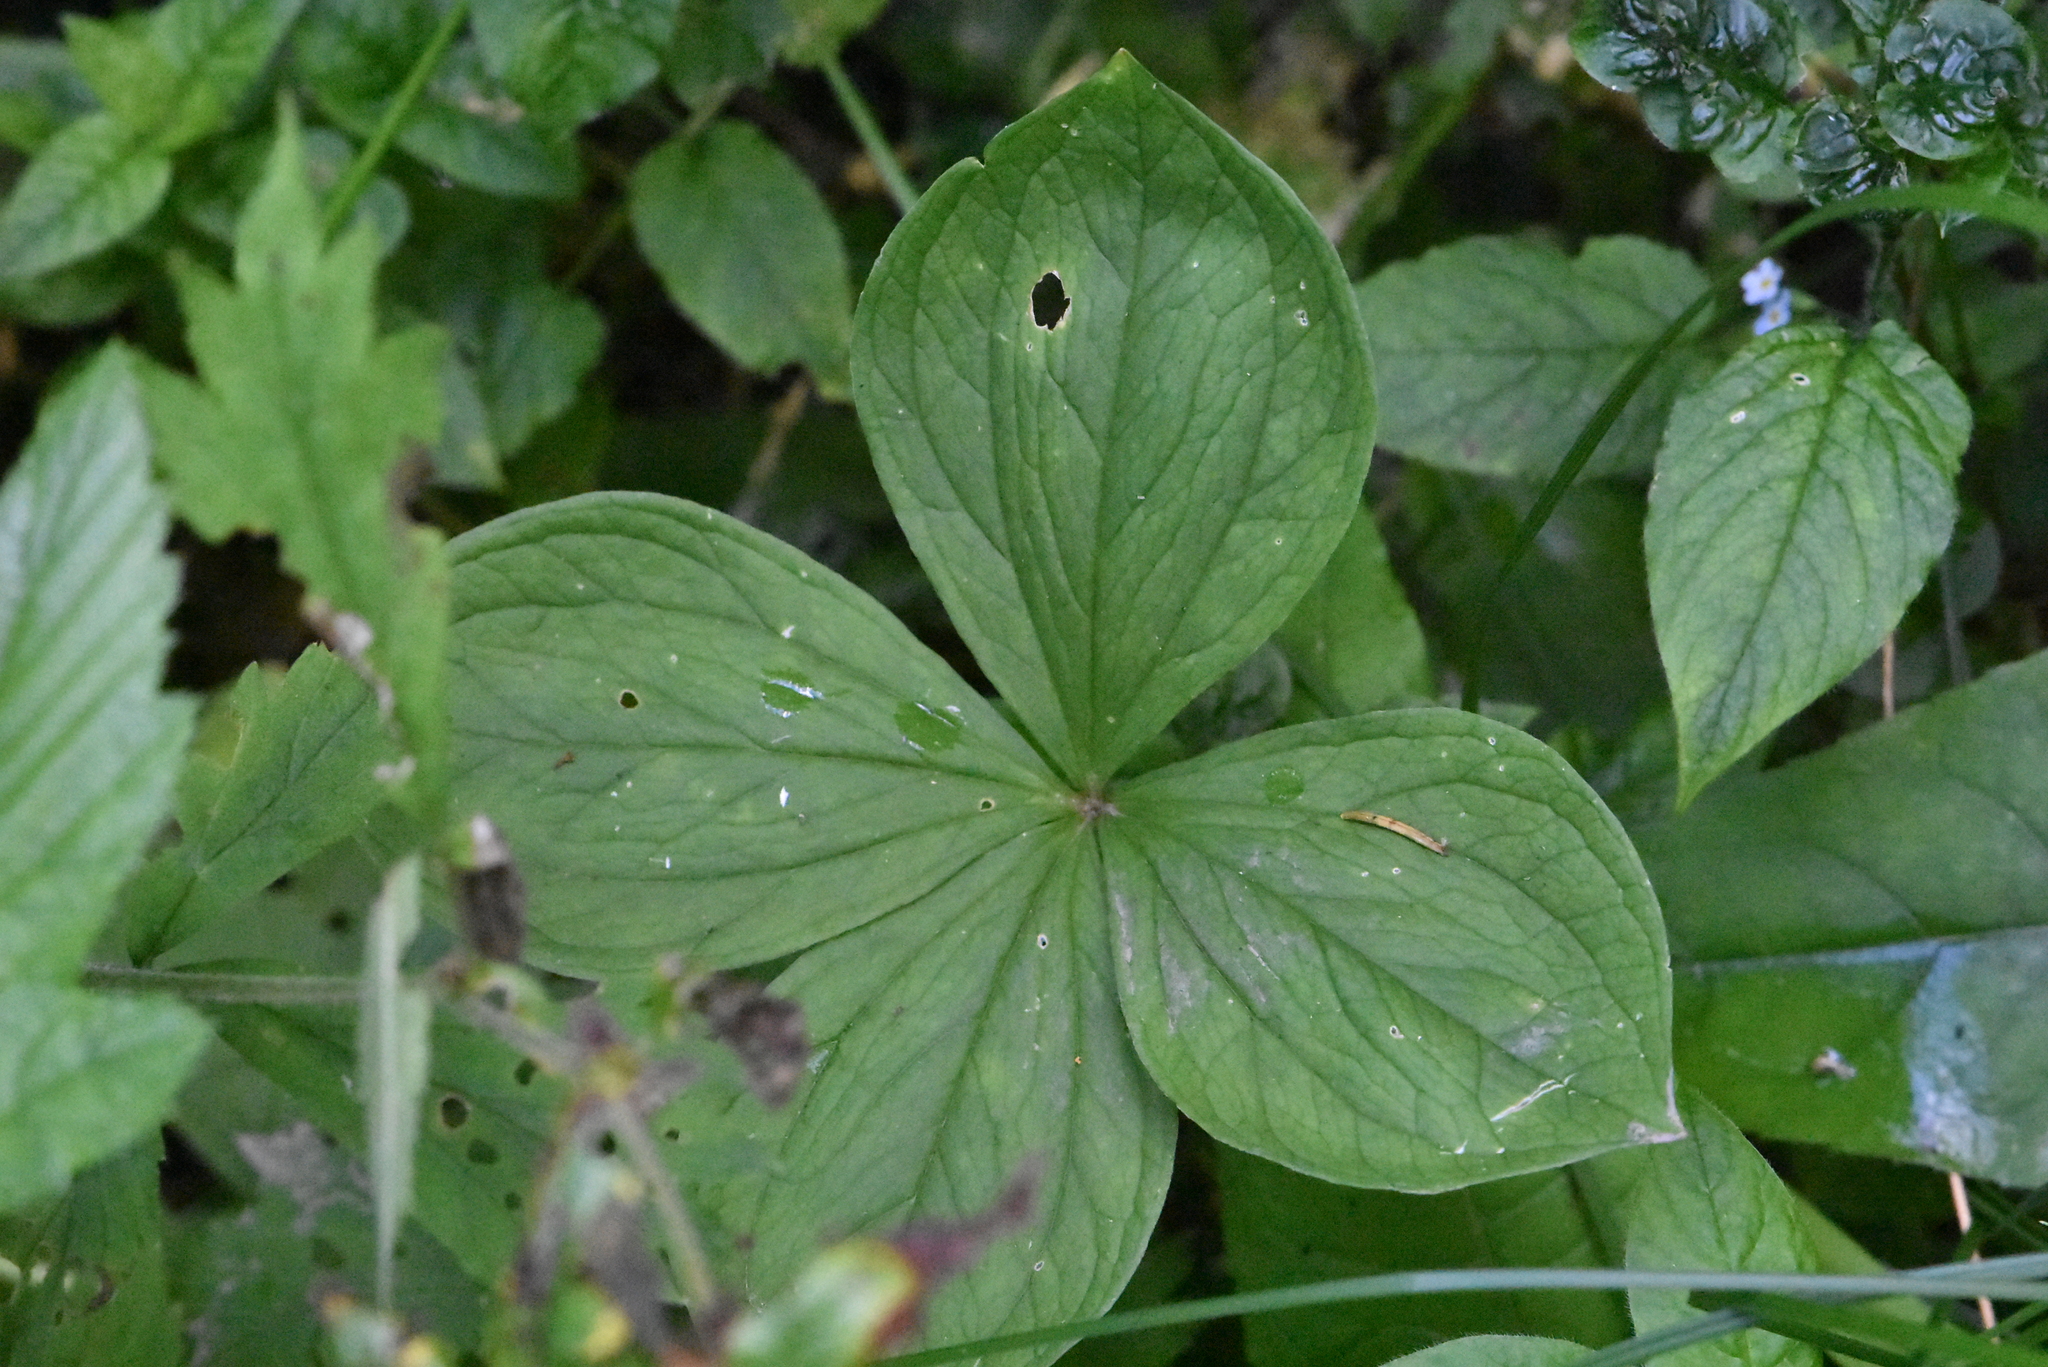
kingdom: Plantae
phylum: Tracheophyta
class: Liliopsida
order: Liliales
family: Melanthiaceae
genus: Paris
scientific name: Paris quadrifolia
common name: Herb-paris
